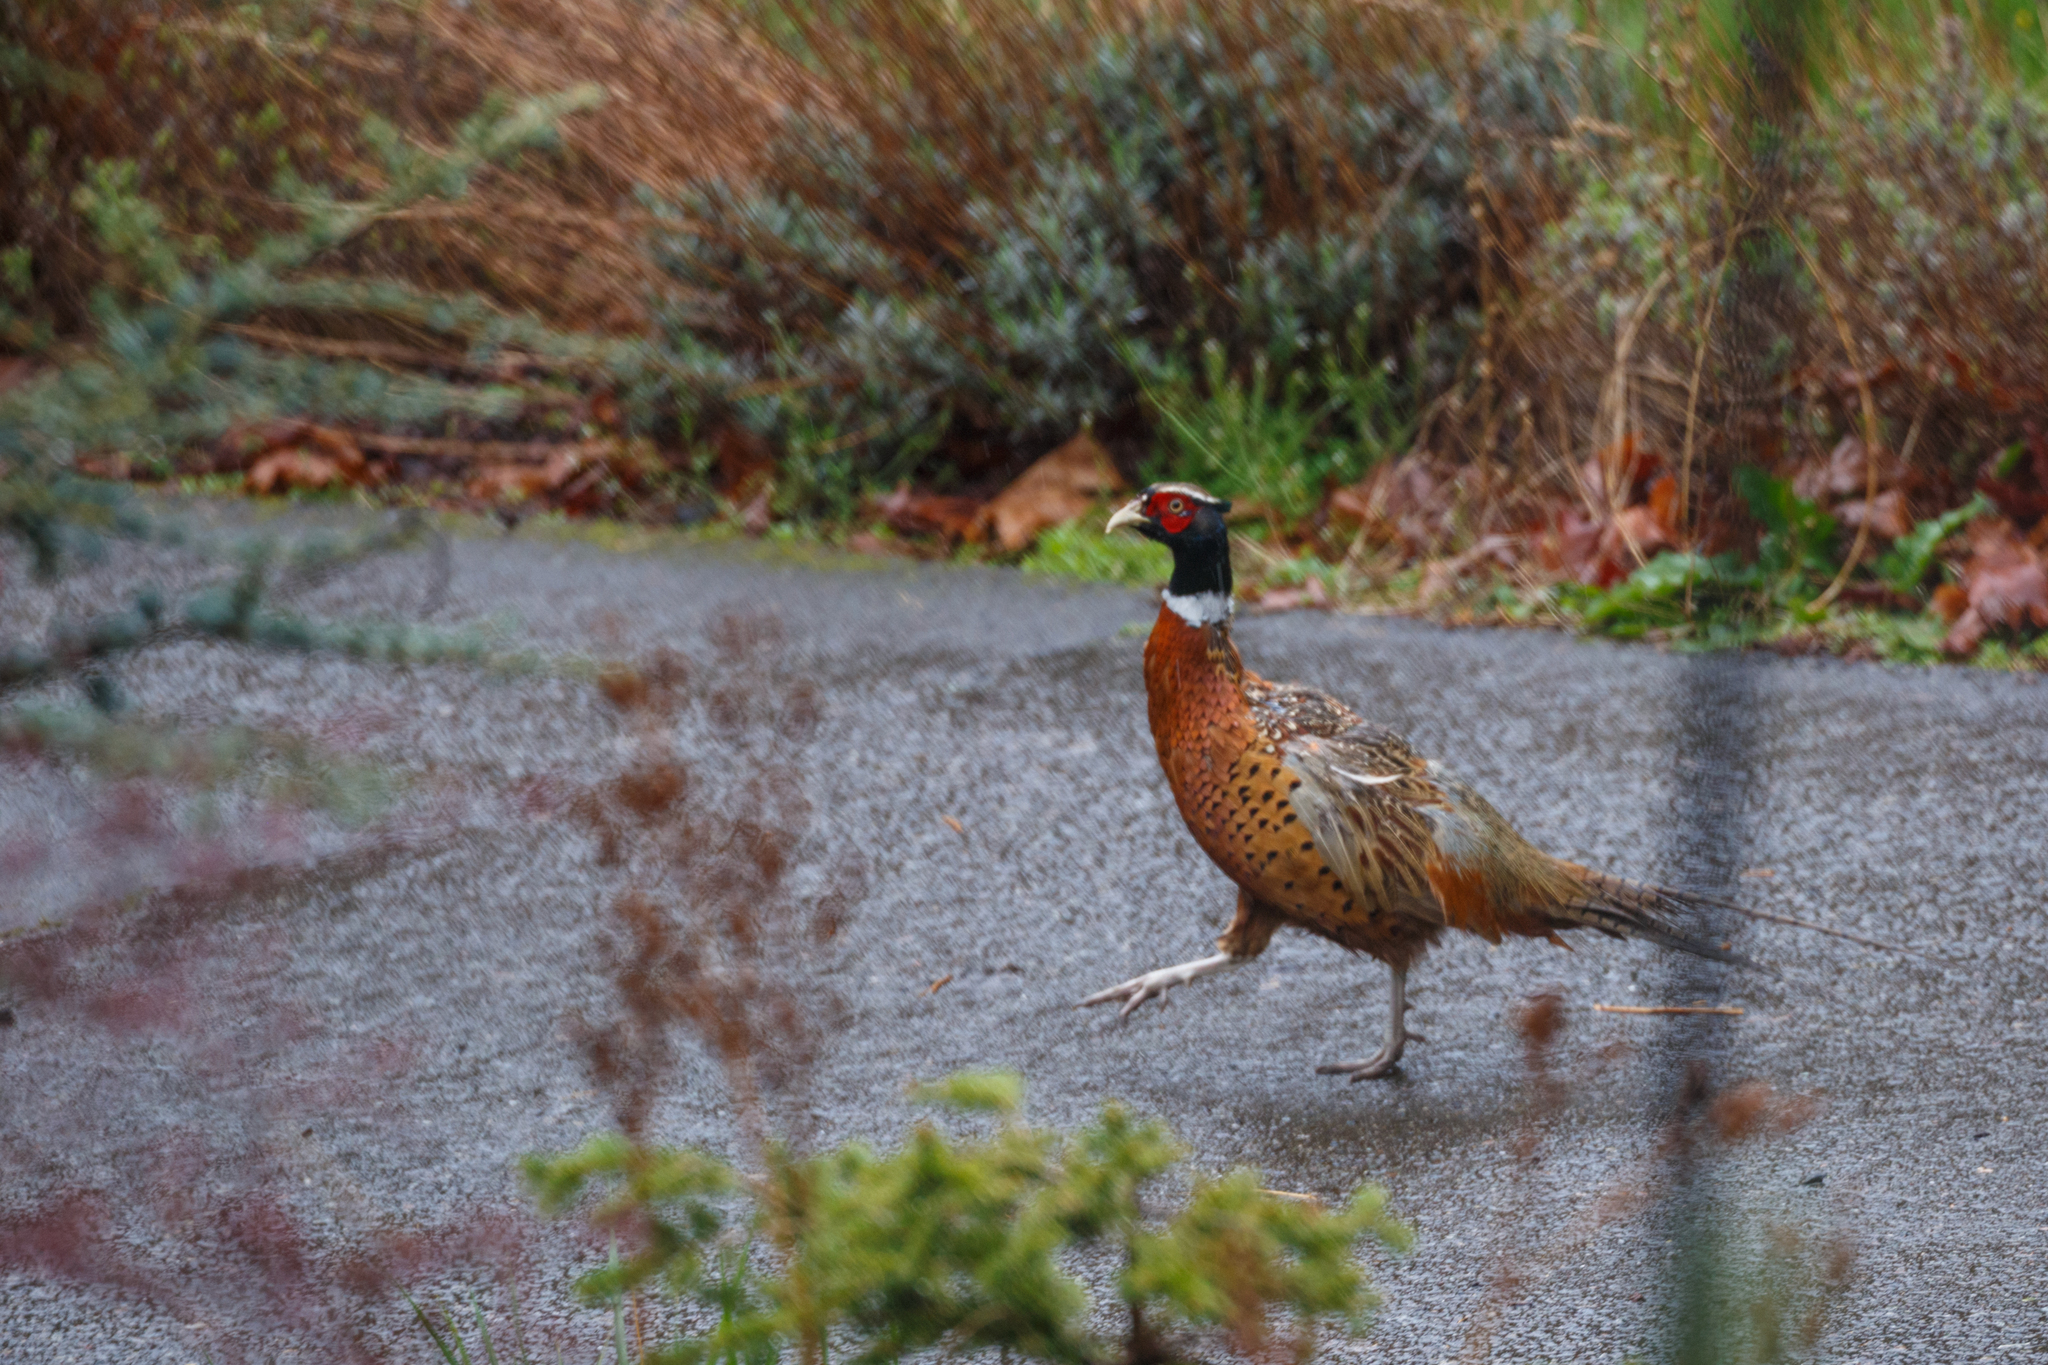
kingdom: Animalia
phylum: Chordata
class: Aves
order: Galliformes
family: Phasianidae
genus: Phasianus
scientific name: Phasianus colchicus
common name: Common pheasant
